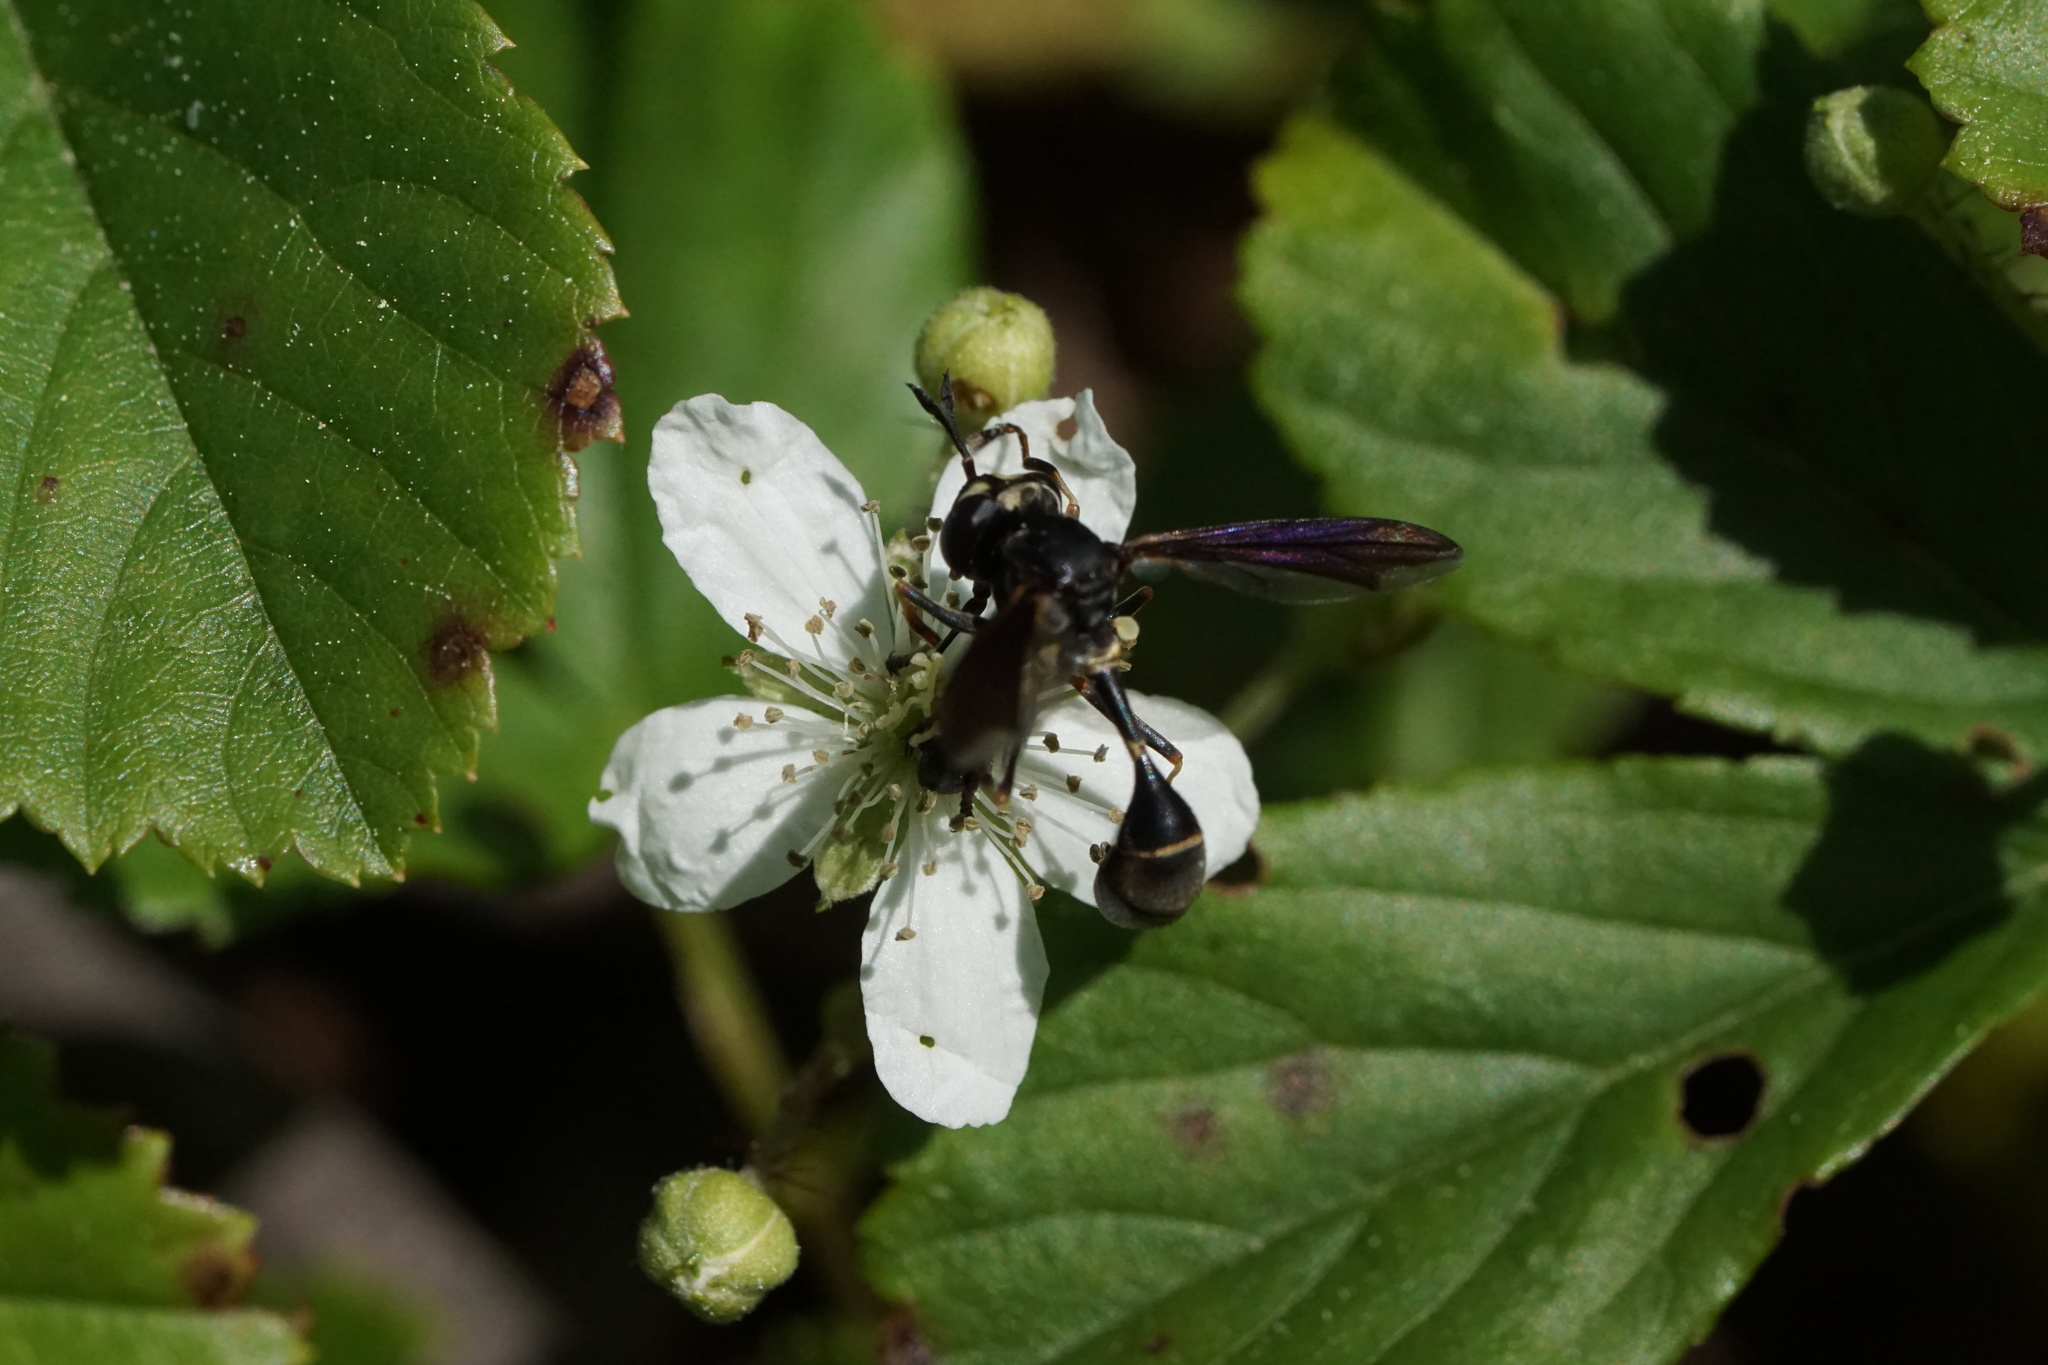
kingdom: Animalia
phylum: Arthropoda
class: Insecta
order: Diptera
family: Conopidae
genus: Physocephala
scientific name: Physocephala tibialis
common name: Common eastern physocephala
